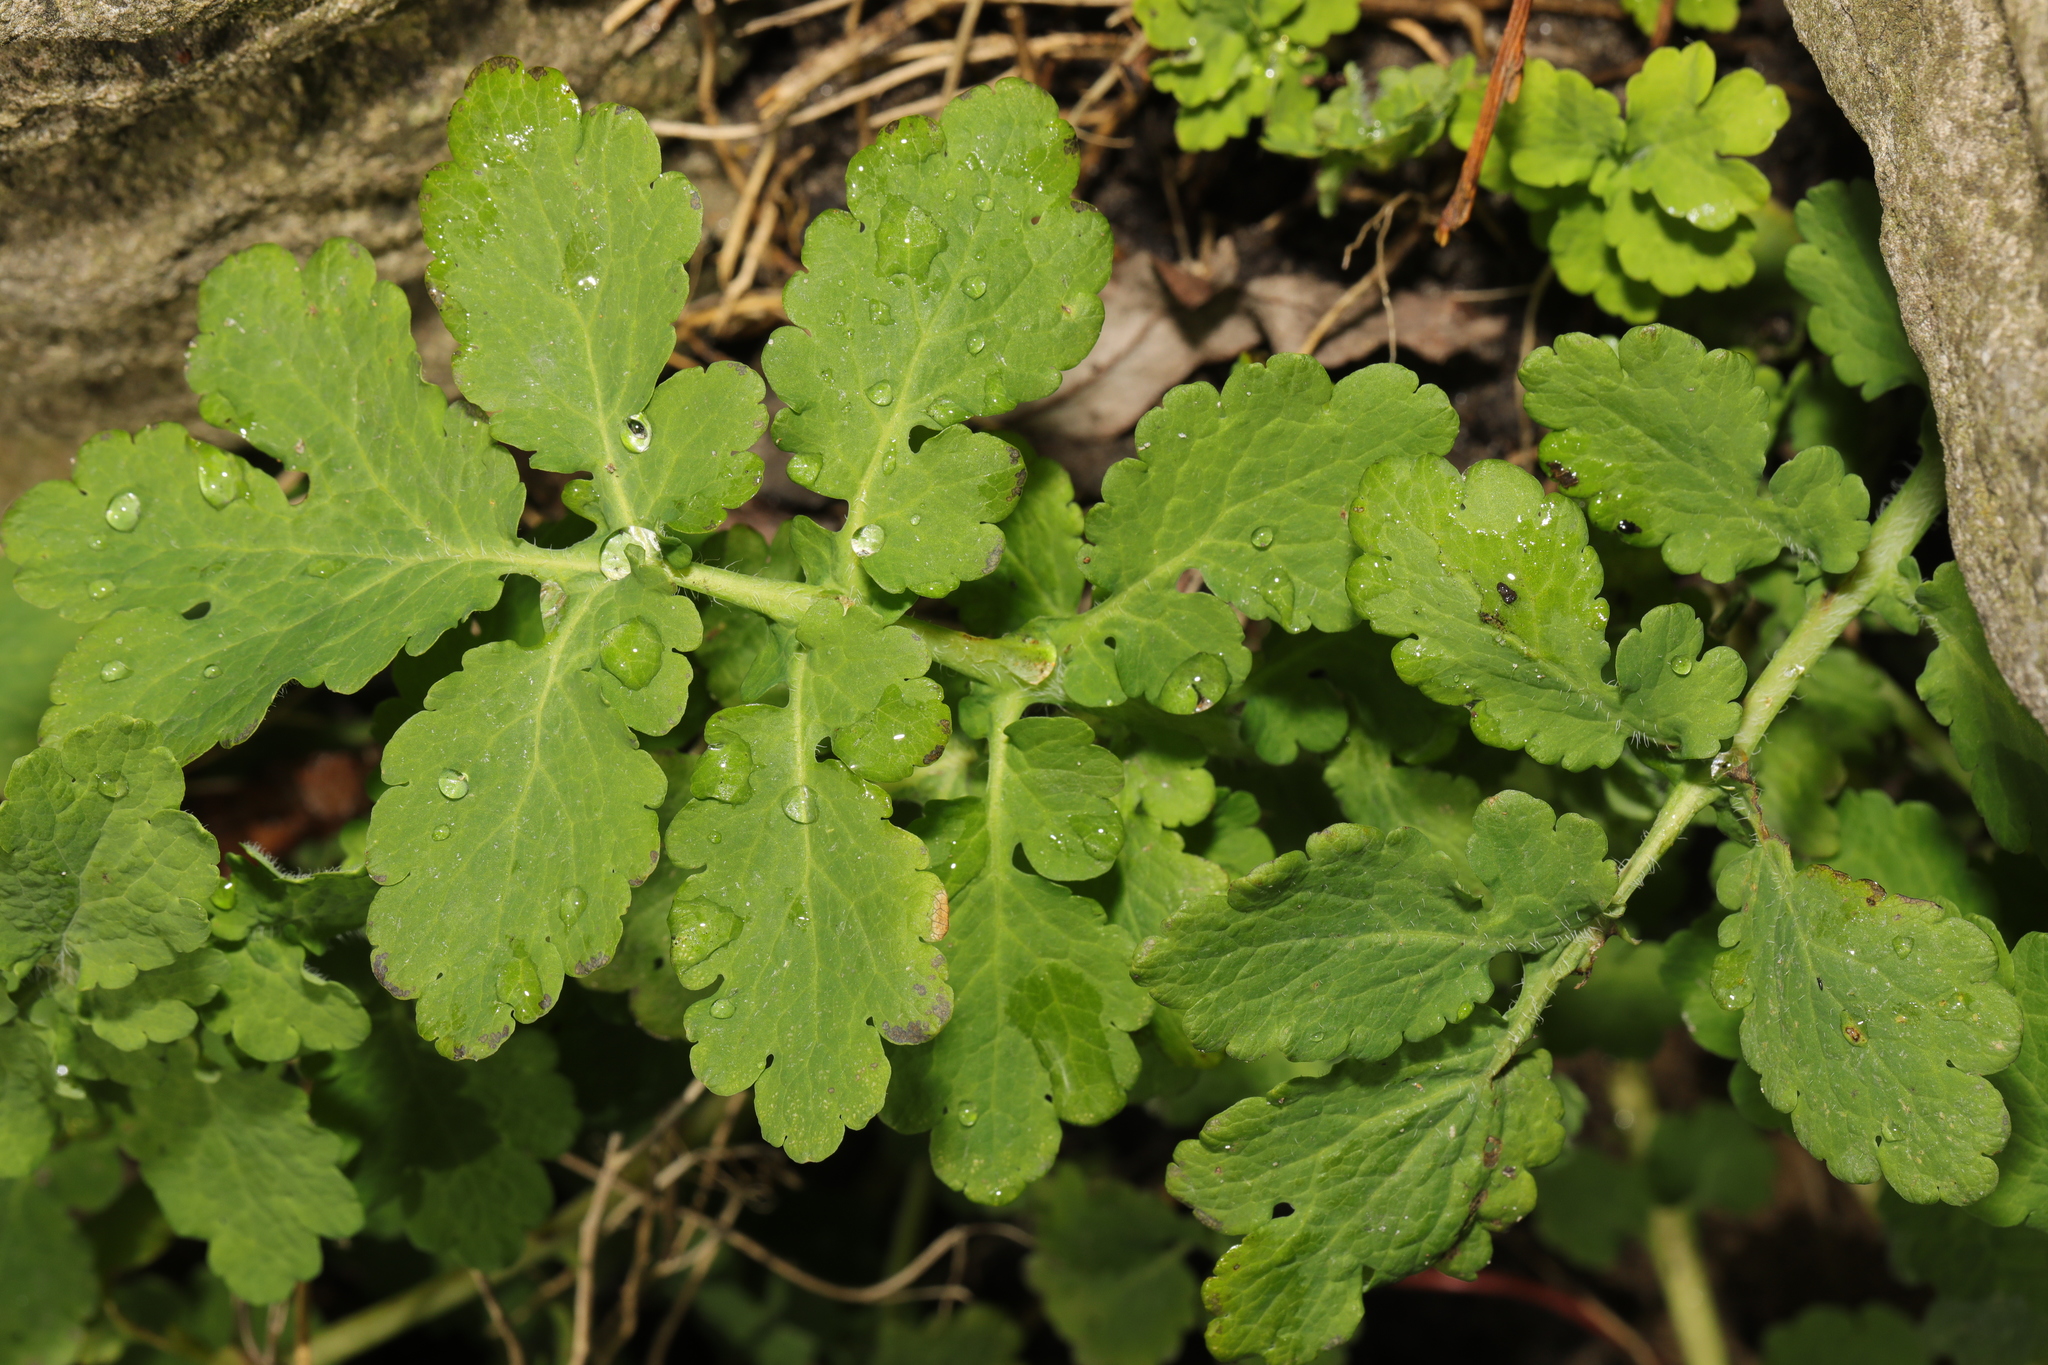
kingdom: Plantae
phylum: Tracheophyta
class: Magnoliopsida
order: Ranunculales
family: Papaveraceae
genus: Chelidonium
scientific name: Chelidonium majus
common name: Greater celandine
